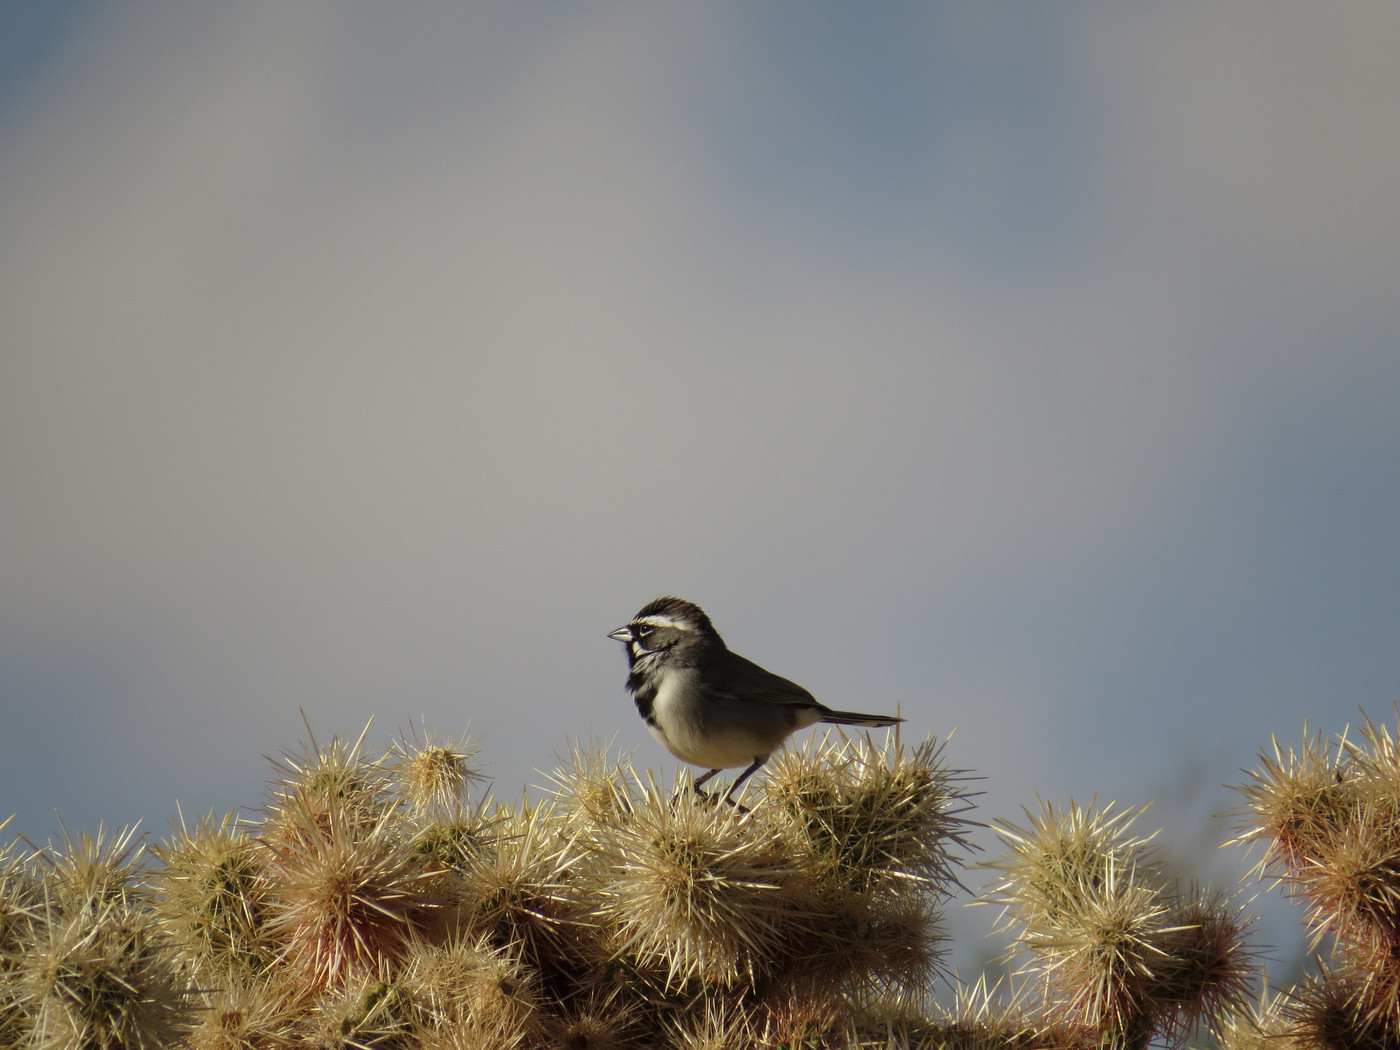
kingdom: Animalia
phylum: Chordata
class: Aves
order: Passeriformes
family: Passerellidae
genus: Amphispiza
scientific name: Amphispiza bilineata
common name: Black-throated sparrow
